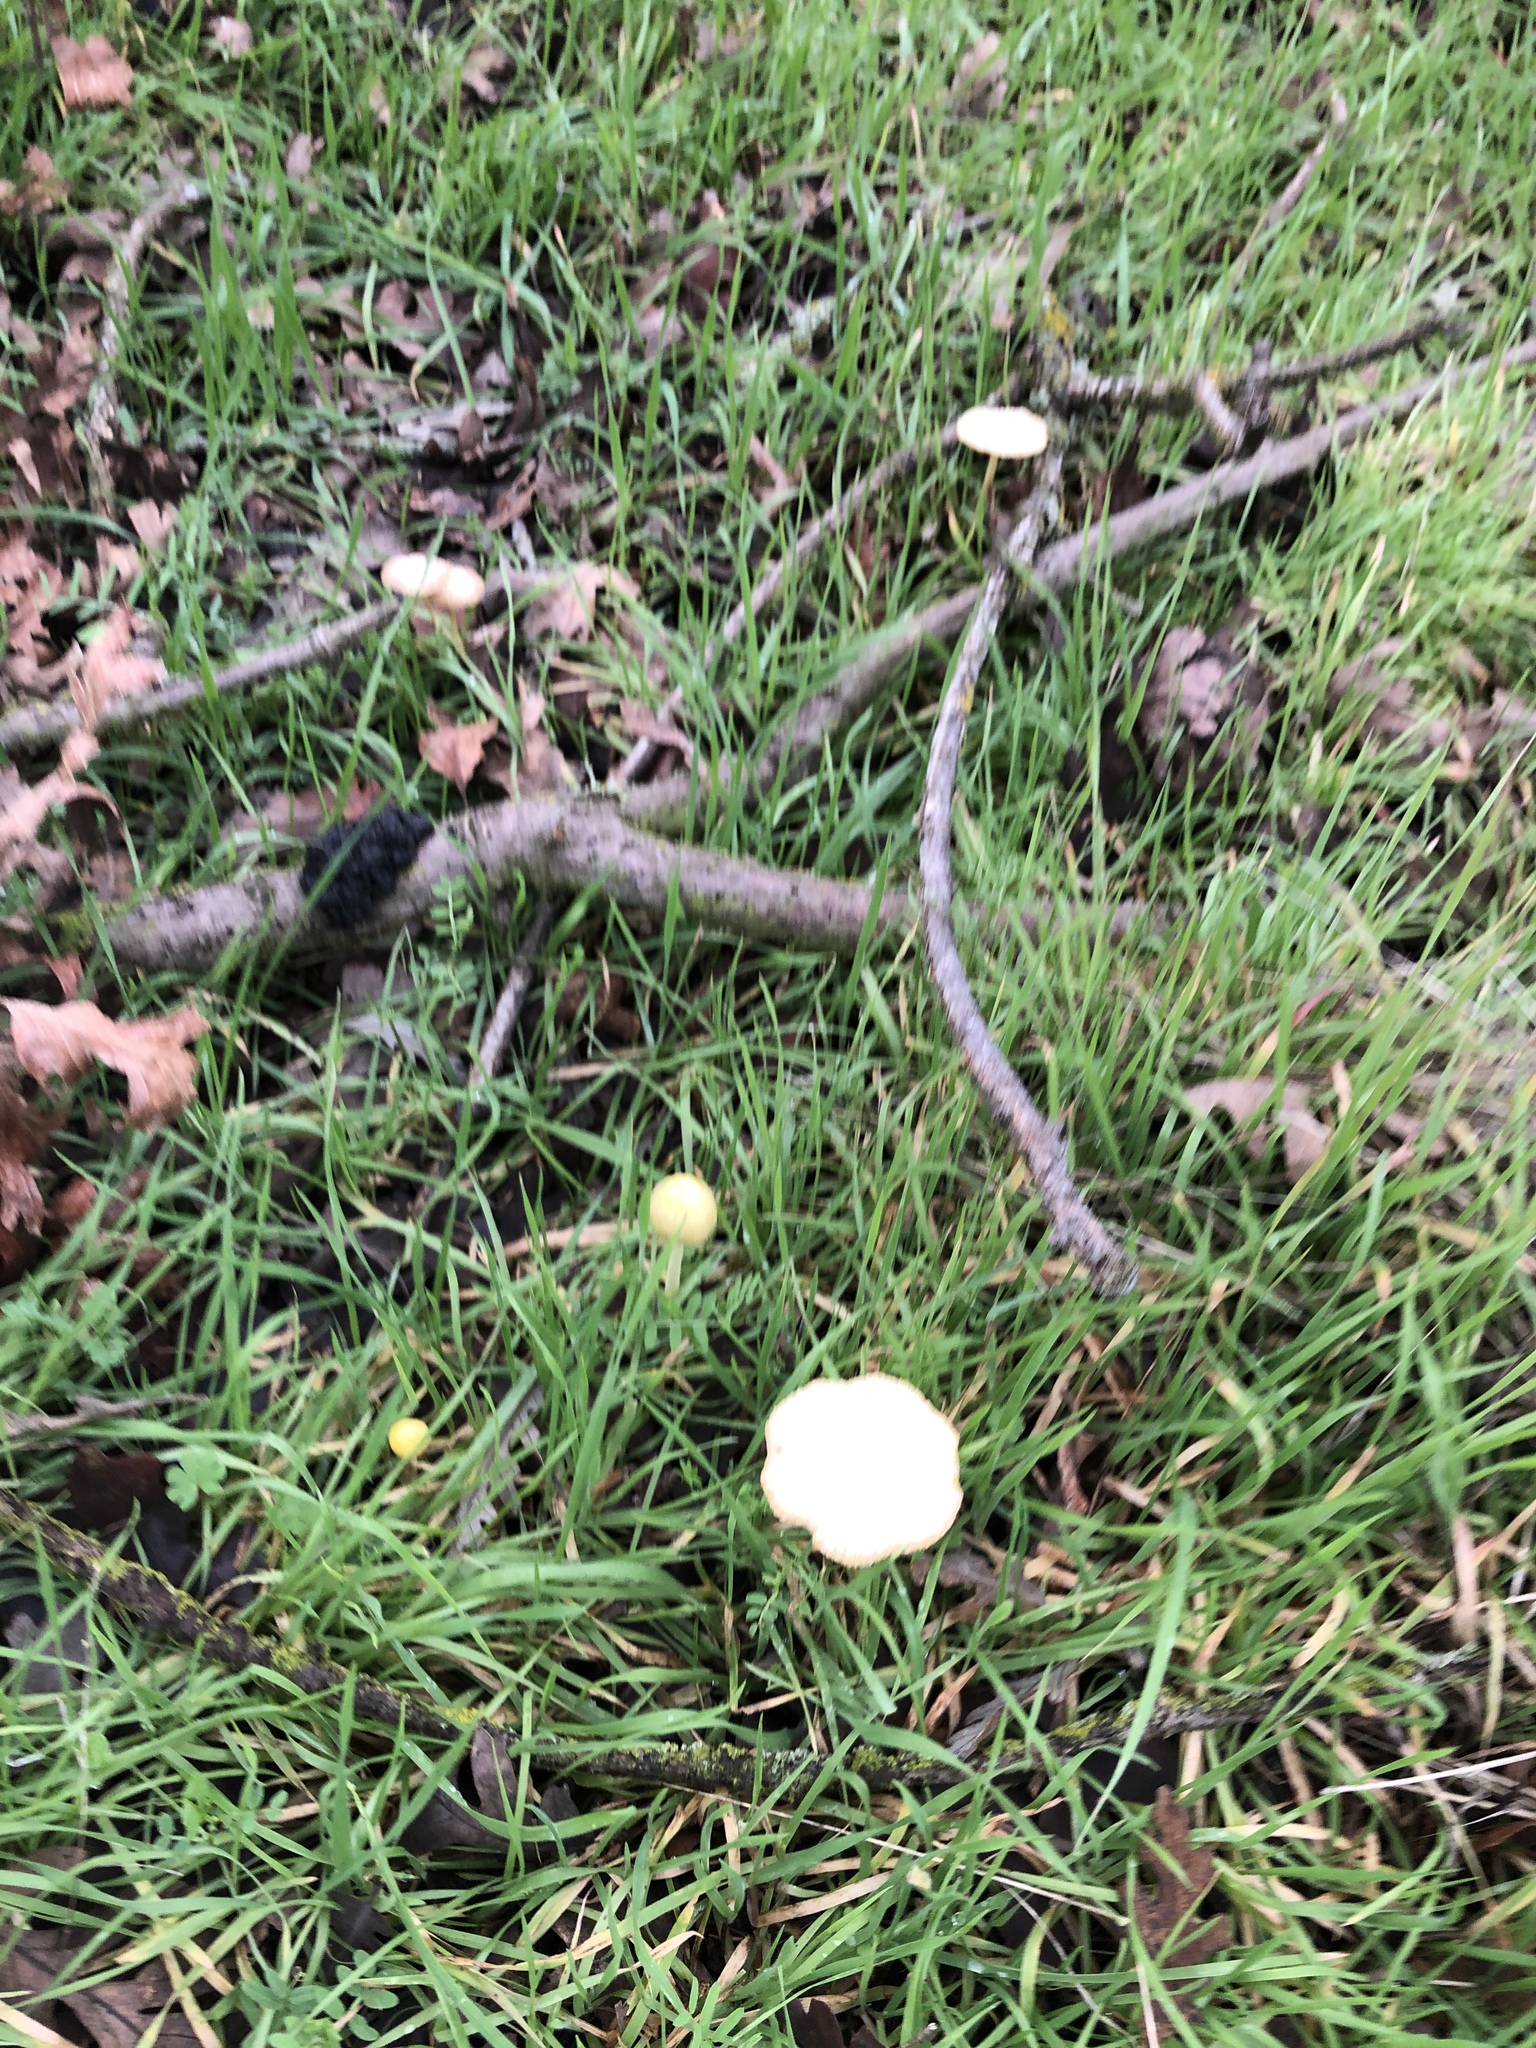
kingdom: Fungi
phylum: Basidiomycota
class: Agaricomycetes
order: Agaricales
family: Bolbitiaceae
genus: Bolbitius
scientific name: Bolbitius titubans
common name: Yellow fieldcap
